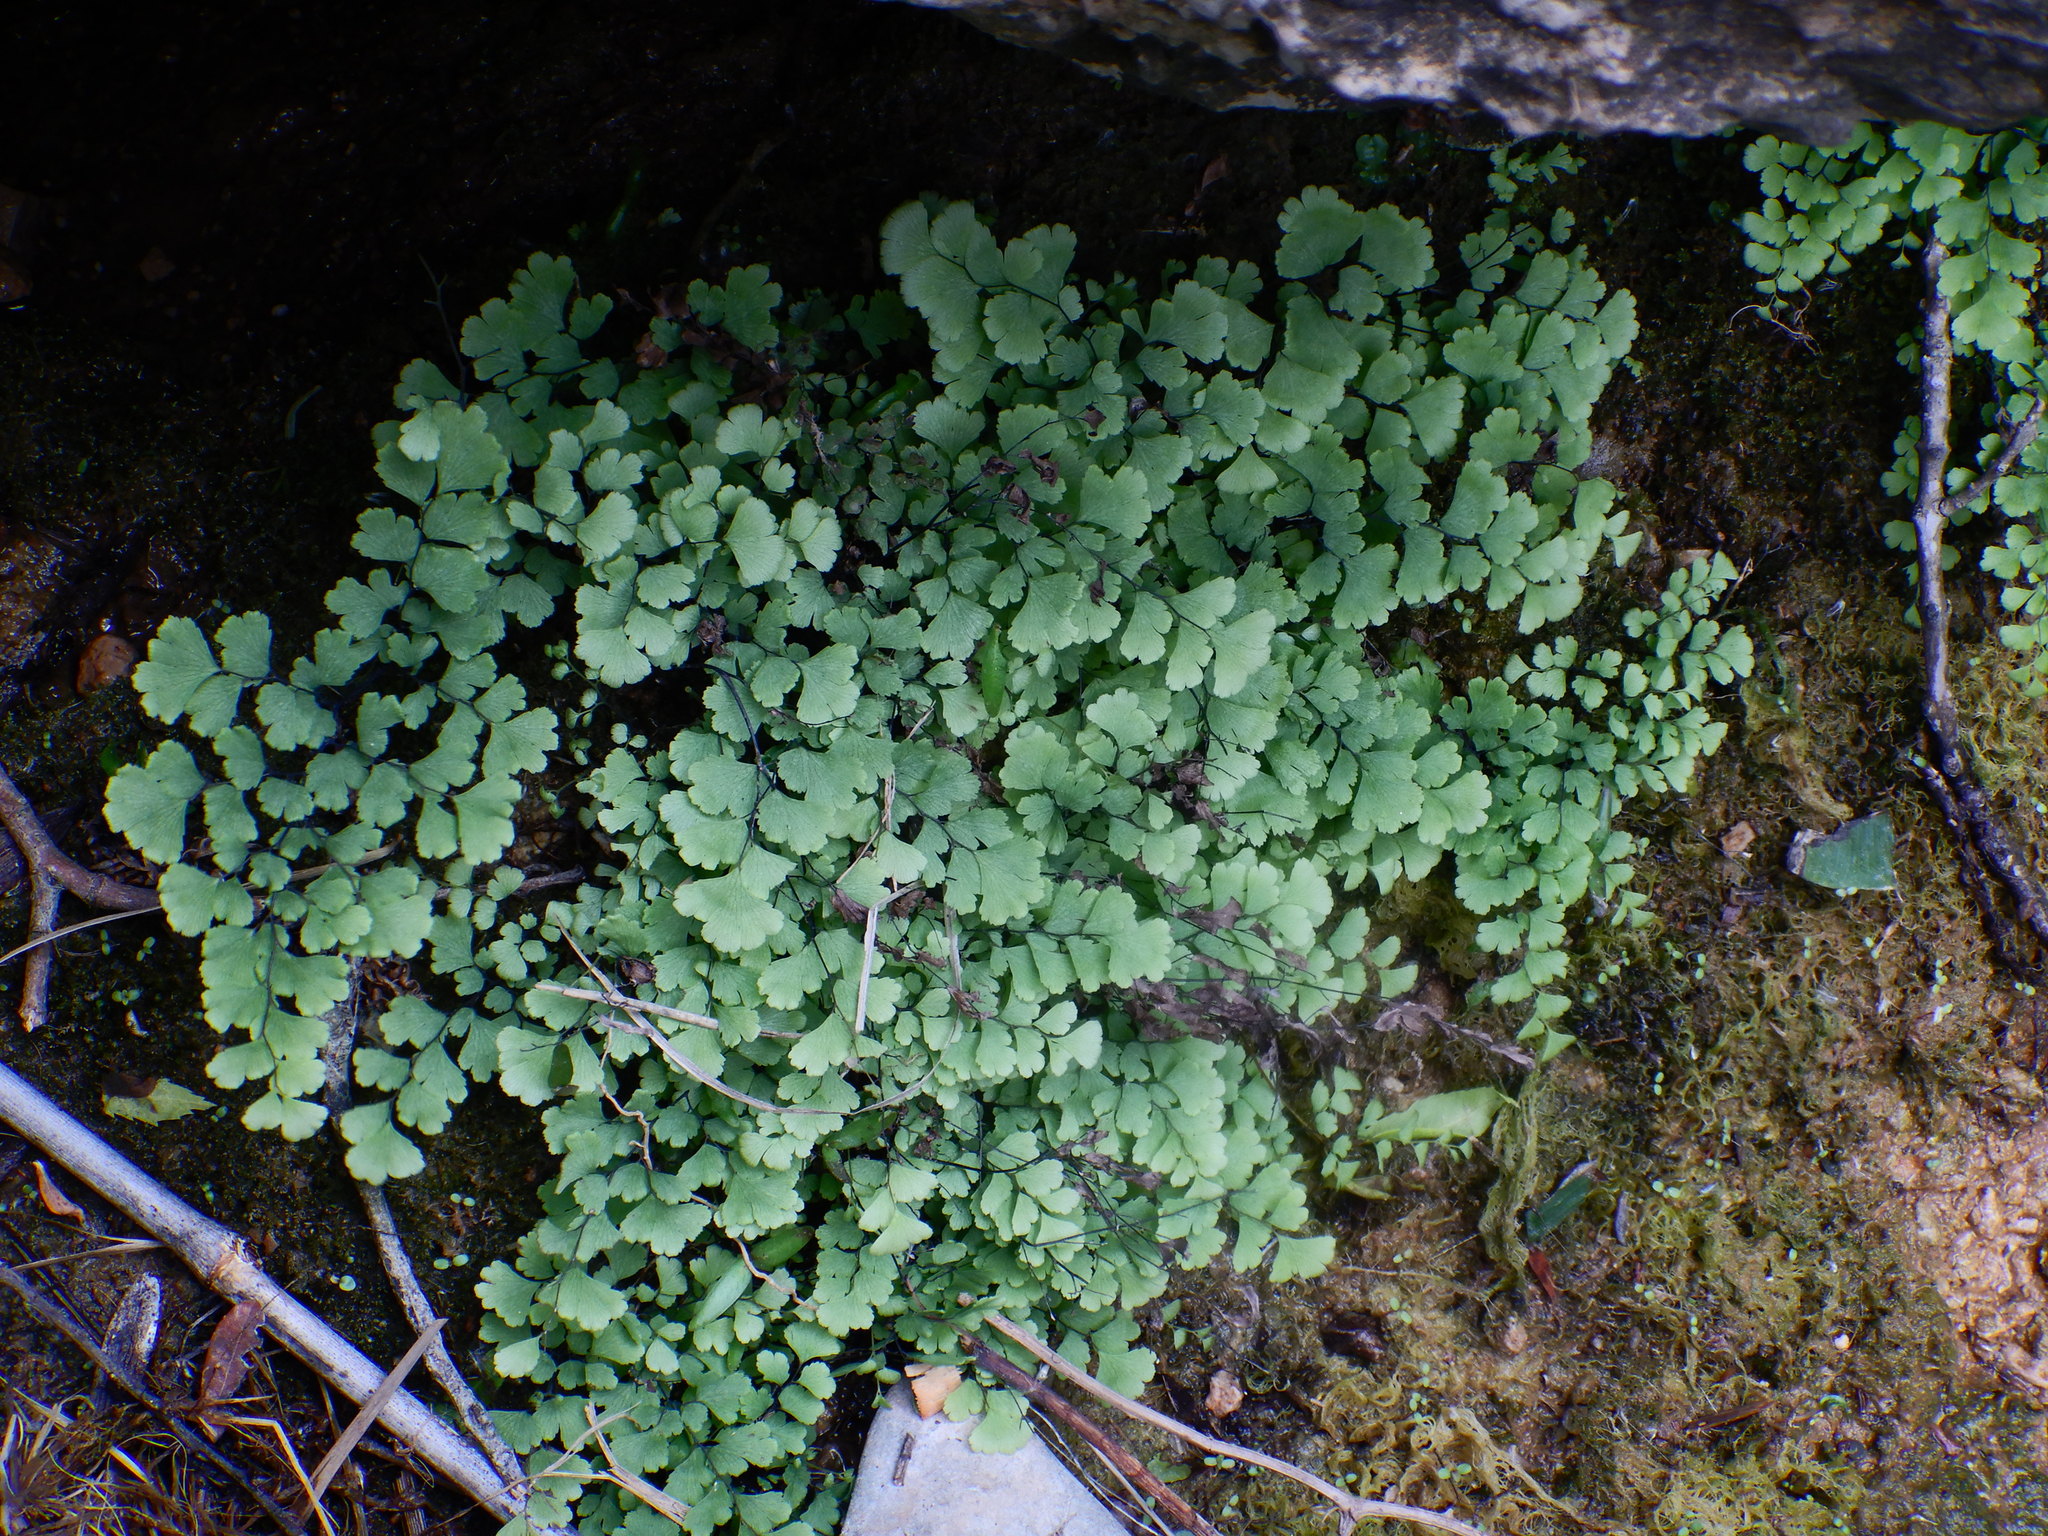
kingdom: Plantae
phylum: Tracheophyta
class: Polypodiopsida
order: Polypodiales
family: Pteridaceae
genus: Adiantum
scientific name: Adiantum capillus-veneris
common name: Maidenhair fern
